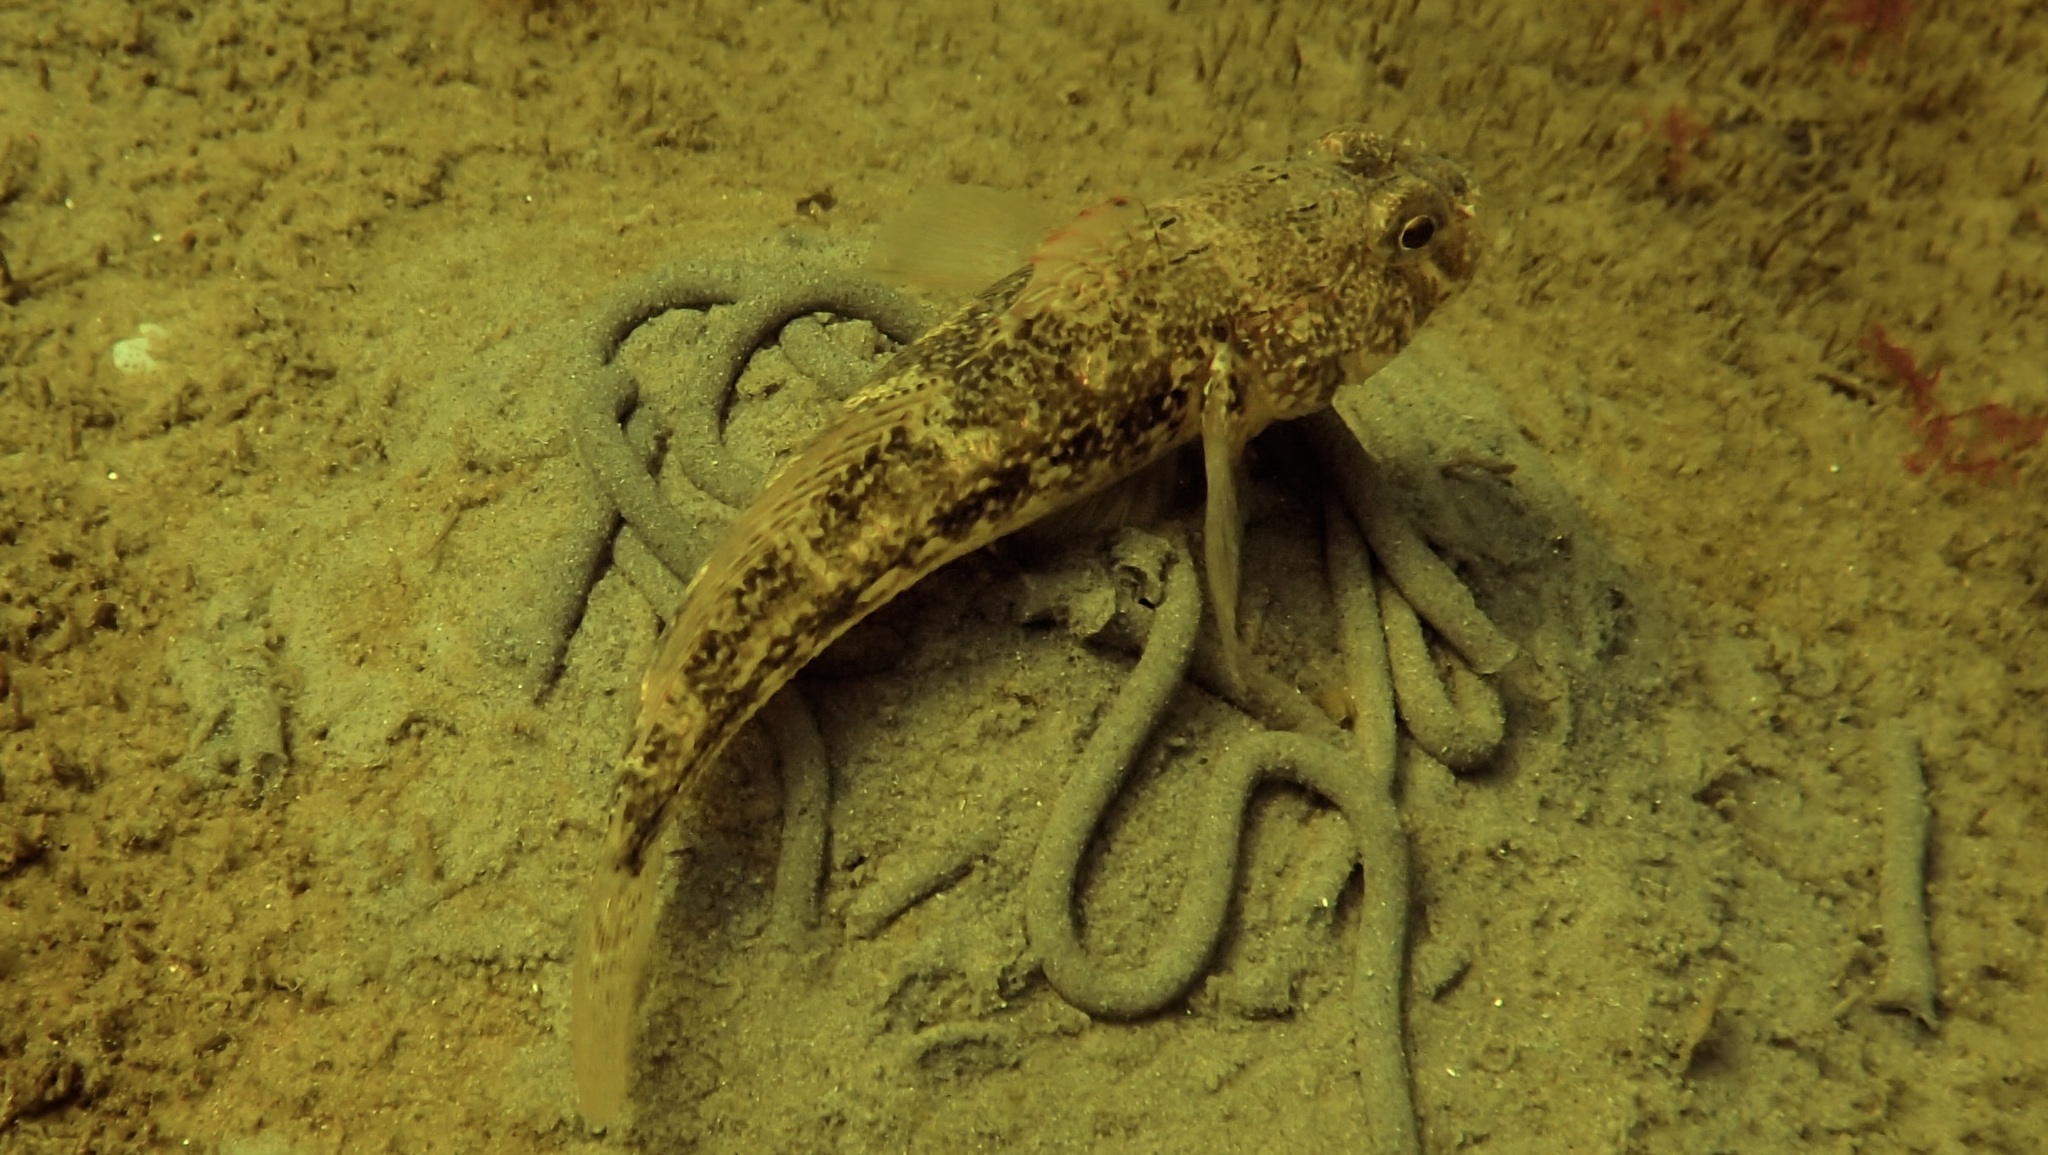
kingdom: Animalia
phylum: Chordata
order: Perciformes
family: Gobiidae
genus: Gobius
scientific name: Gobius niger
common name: Black goby
